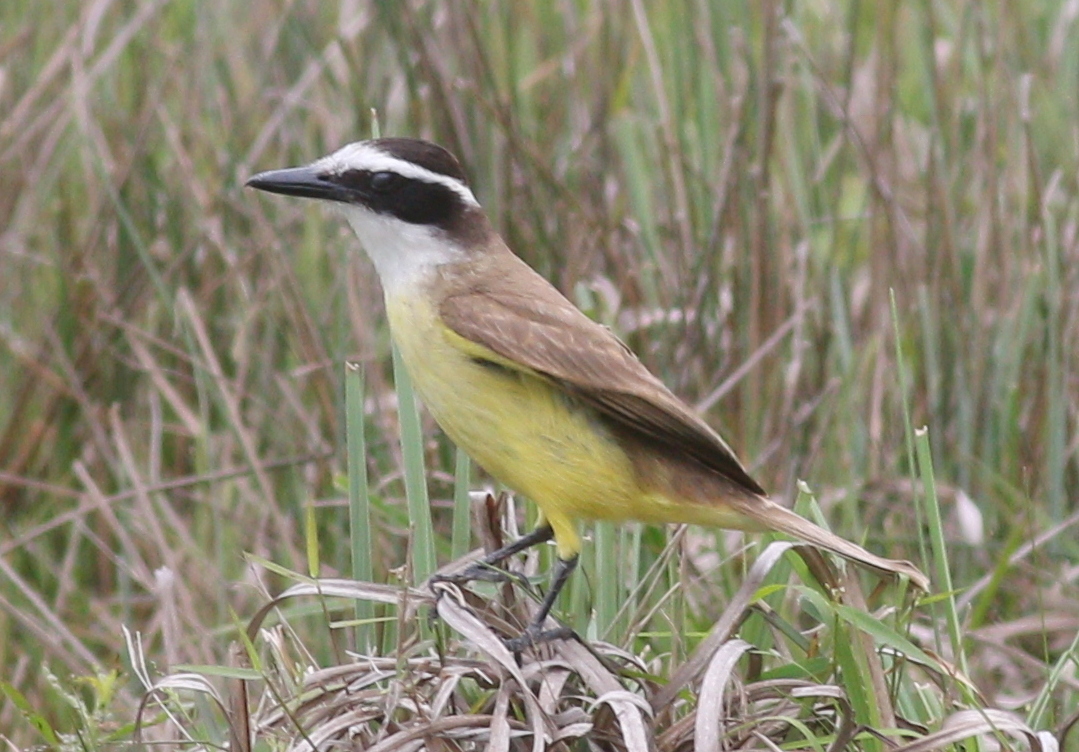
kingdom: Animalia
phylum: Chordata
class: Aves
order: Passeriformes
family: Tyrannidae
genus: Pitangus
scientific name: Pitangus sulphuratus
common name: Great kiskadee
